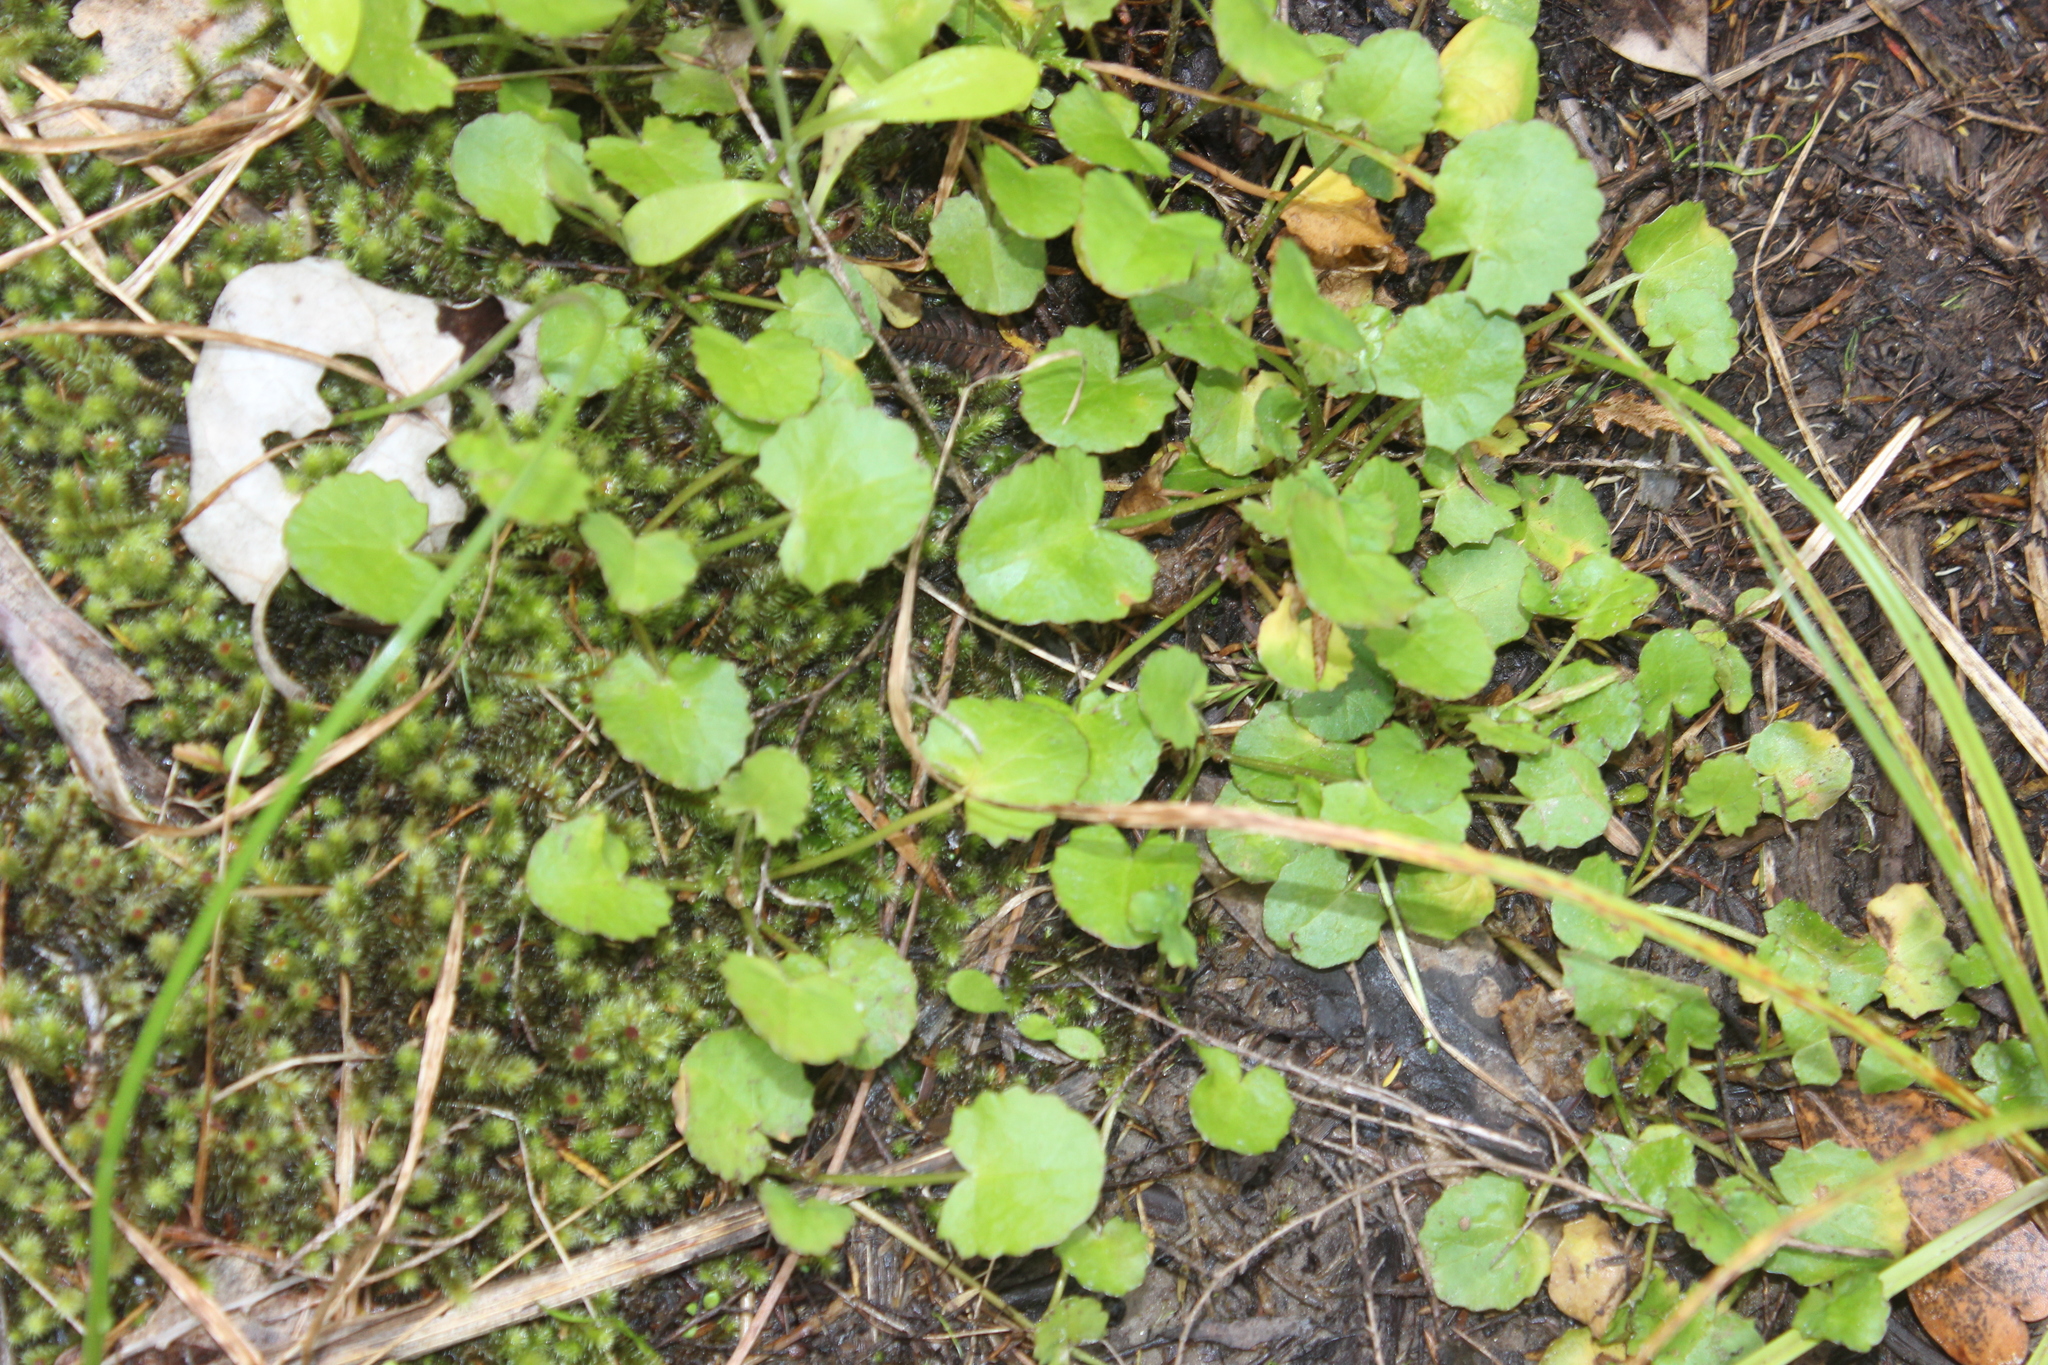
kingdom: Plantae
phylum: Tracheophyta
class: Magnoliopsida
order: Apiales
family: Apiaceae
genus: Centella
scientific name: Centella uniflora
